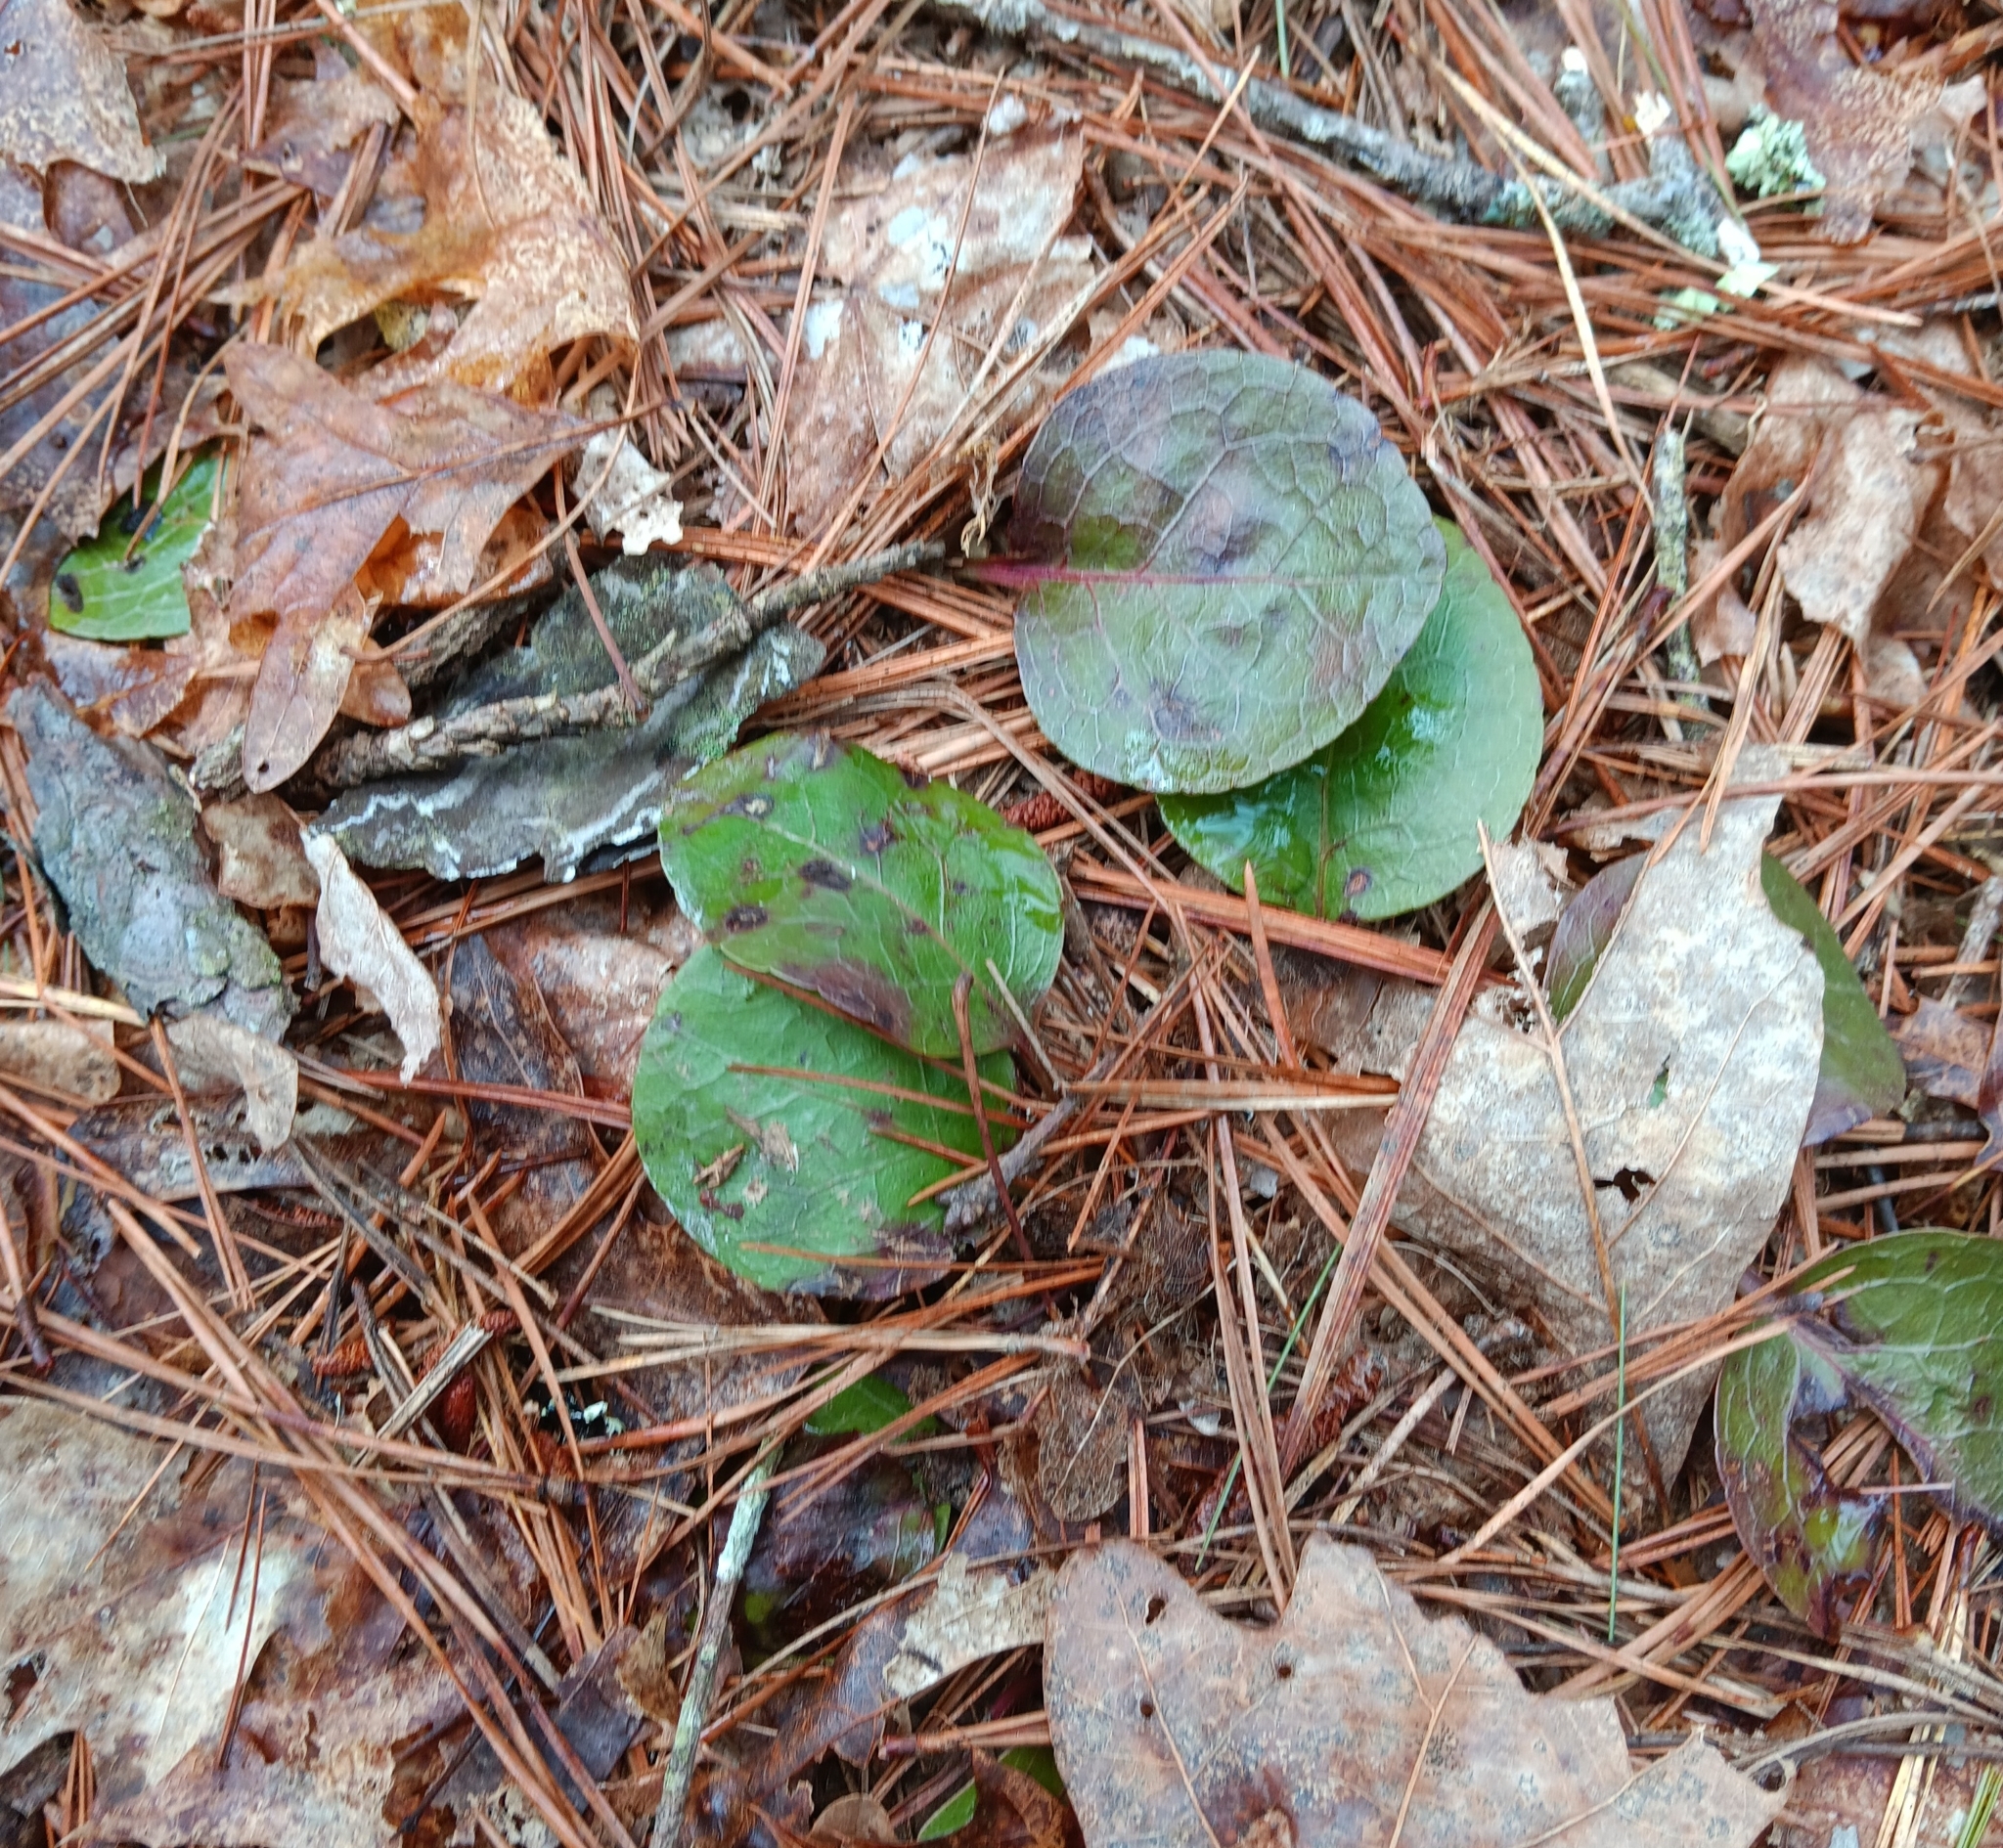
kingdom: Plantae
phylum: Tracheophyta
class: Magnoliopsida
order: Ericales
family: Ericaceae
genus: Pyrola
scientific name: Pyrola americana
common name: American wintergreen
